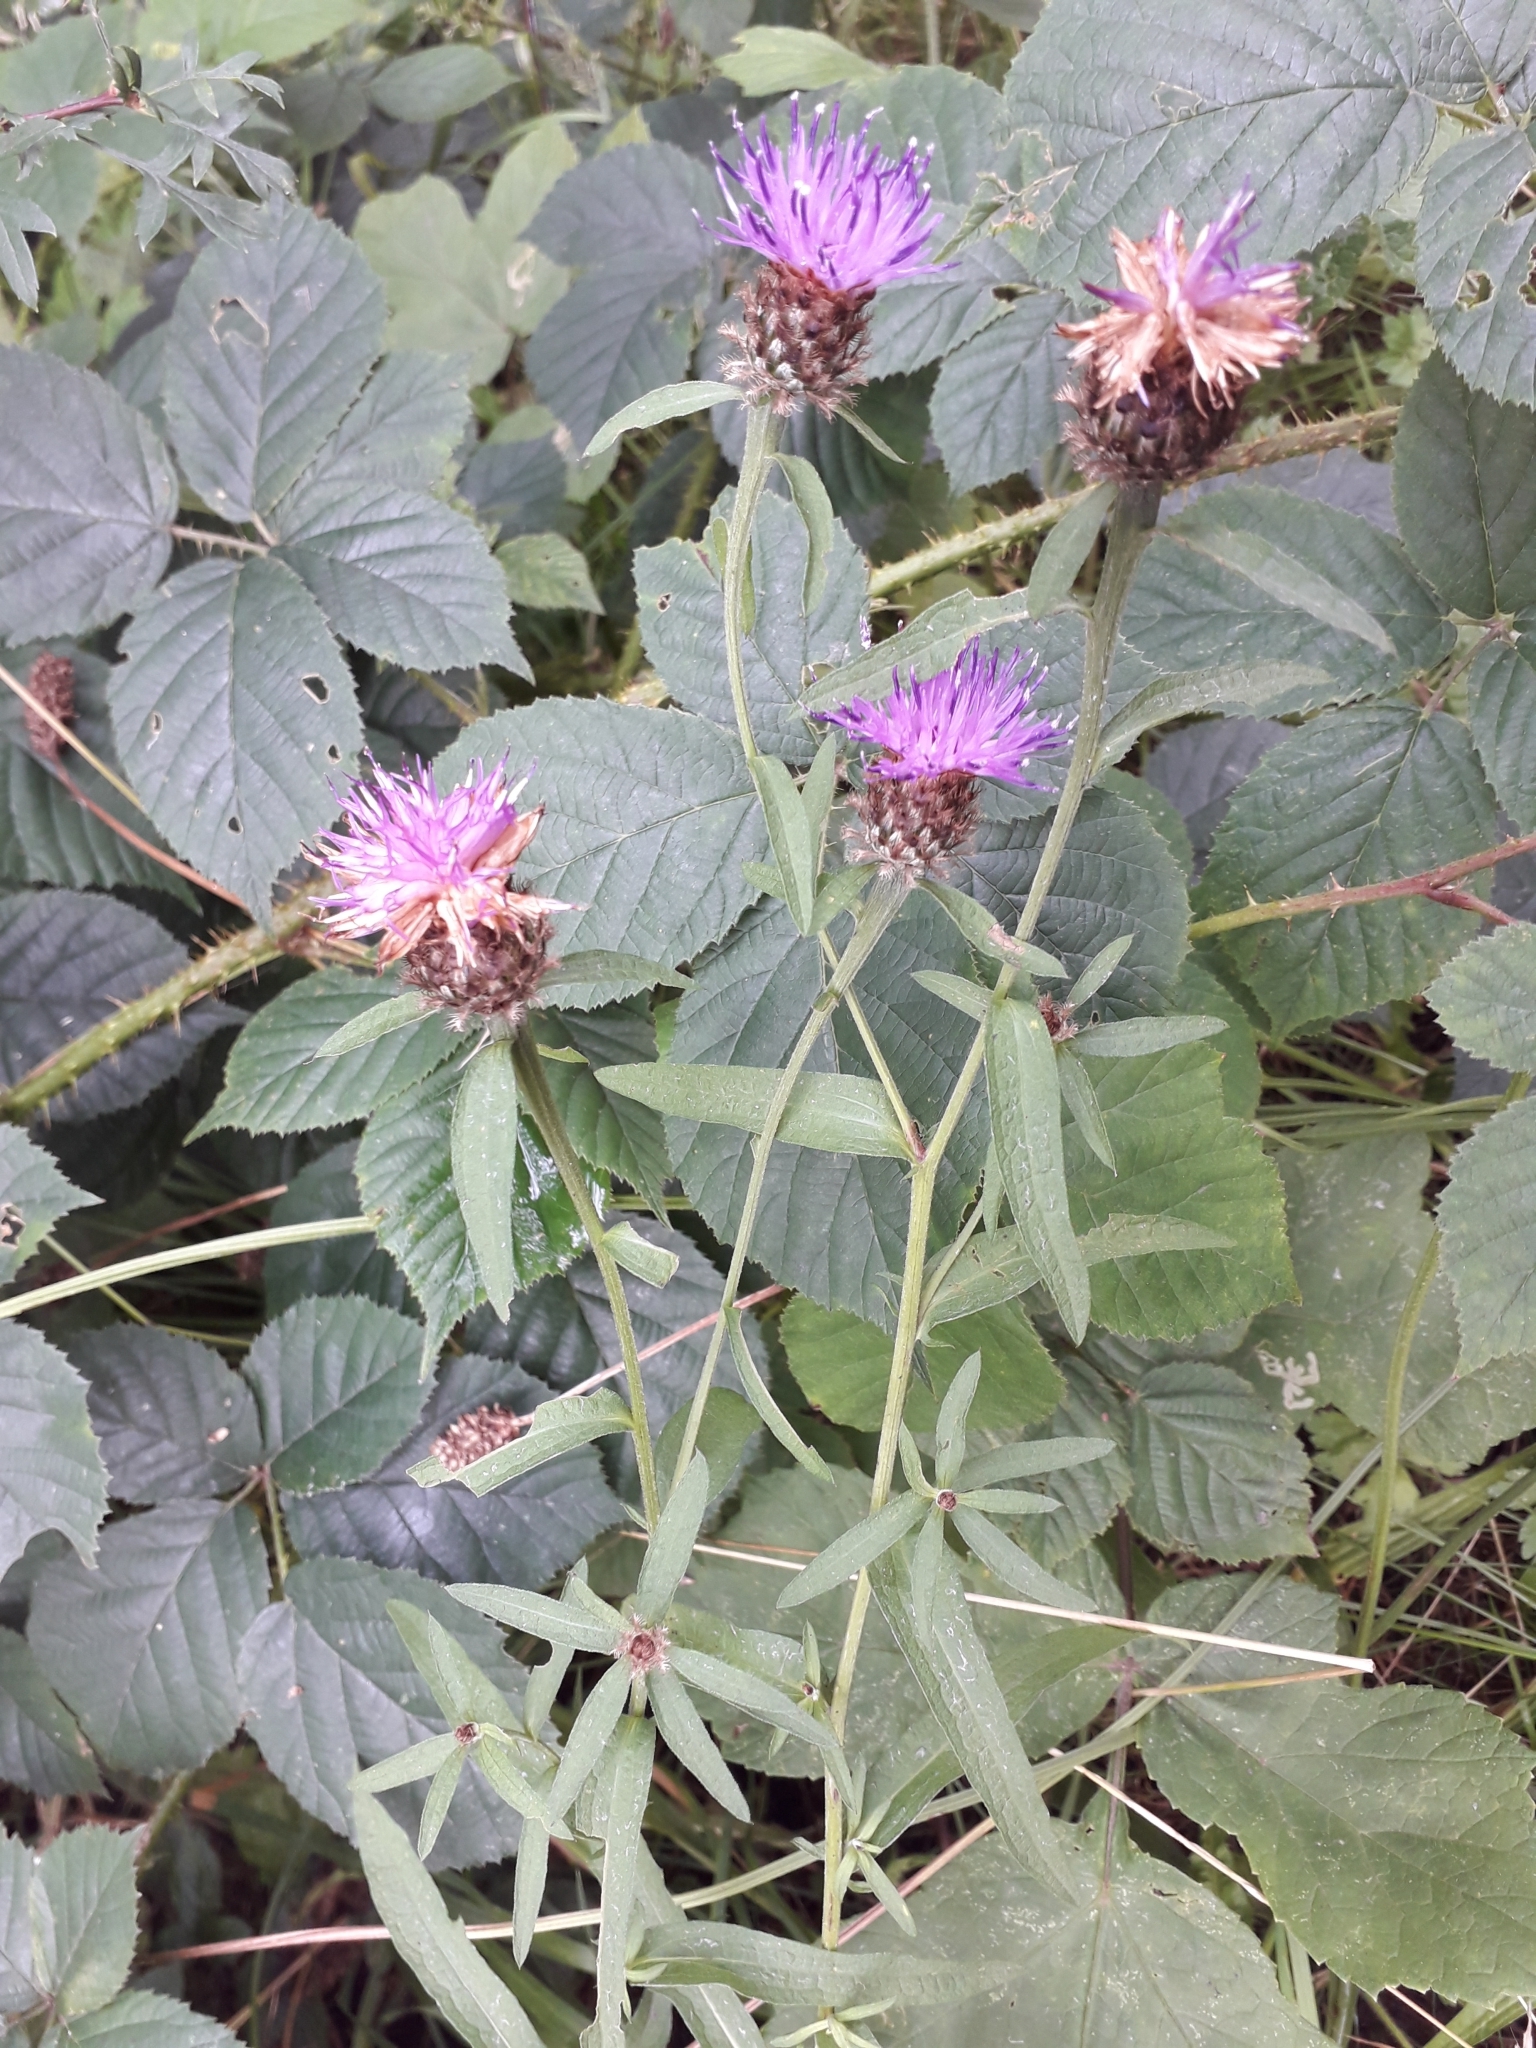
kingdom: Plantae
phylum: Tracheophyta
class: Magnoliopsida
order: Asterales
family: Asteraceae
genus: Centaurea
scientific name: Centaurea nigra
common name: Lesser knapweed
